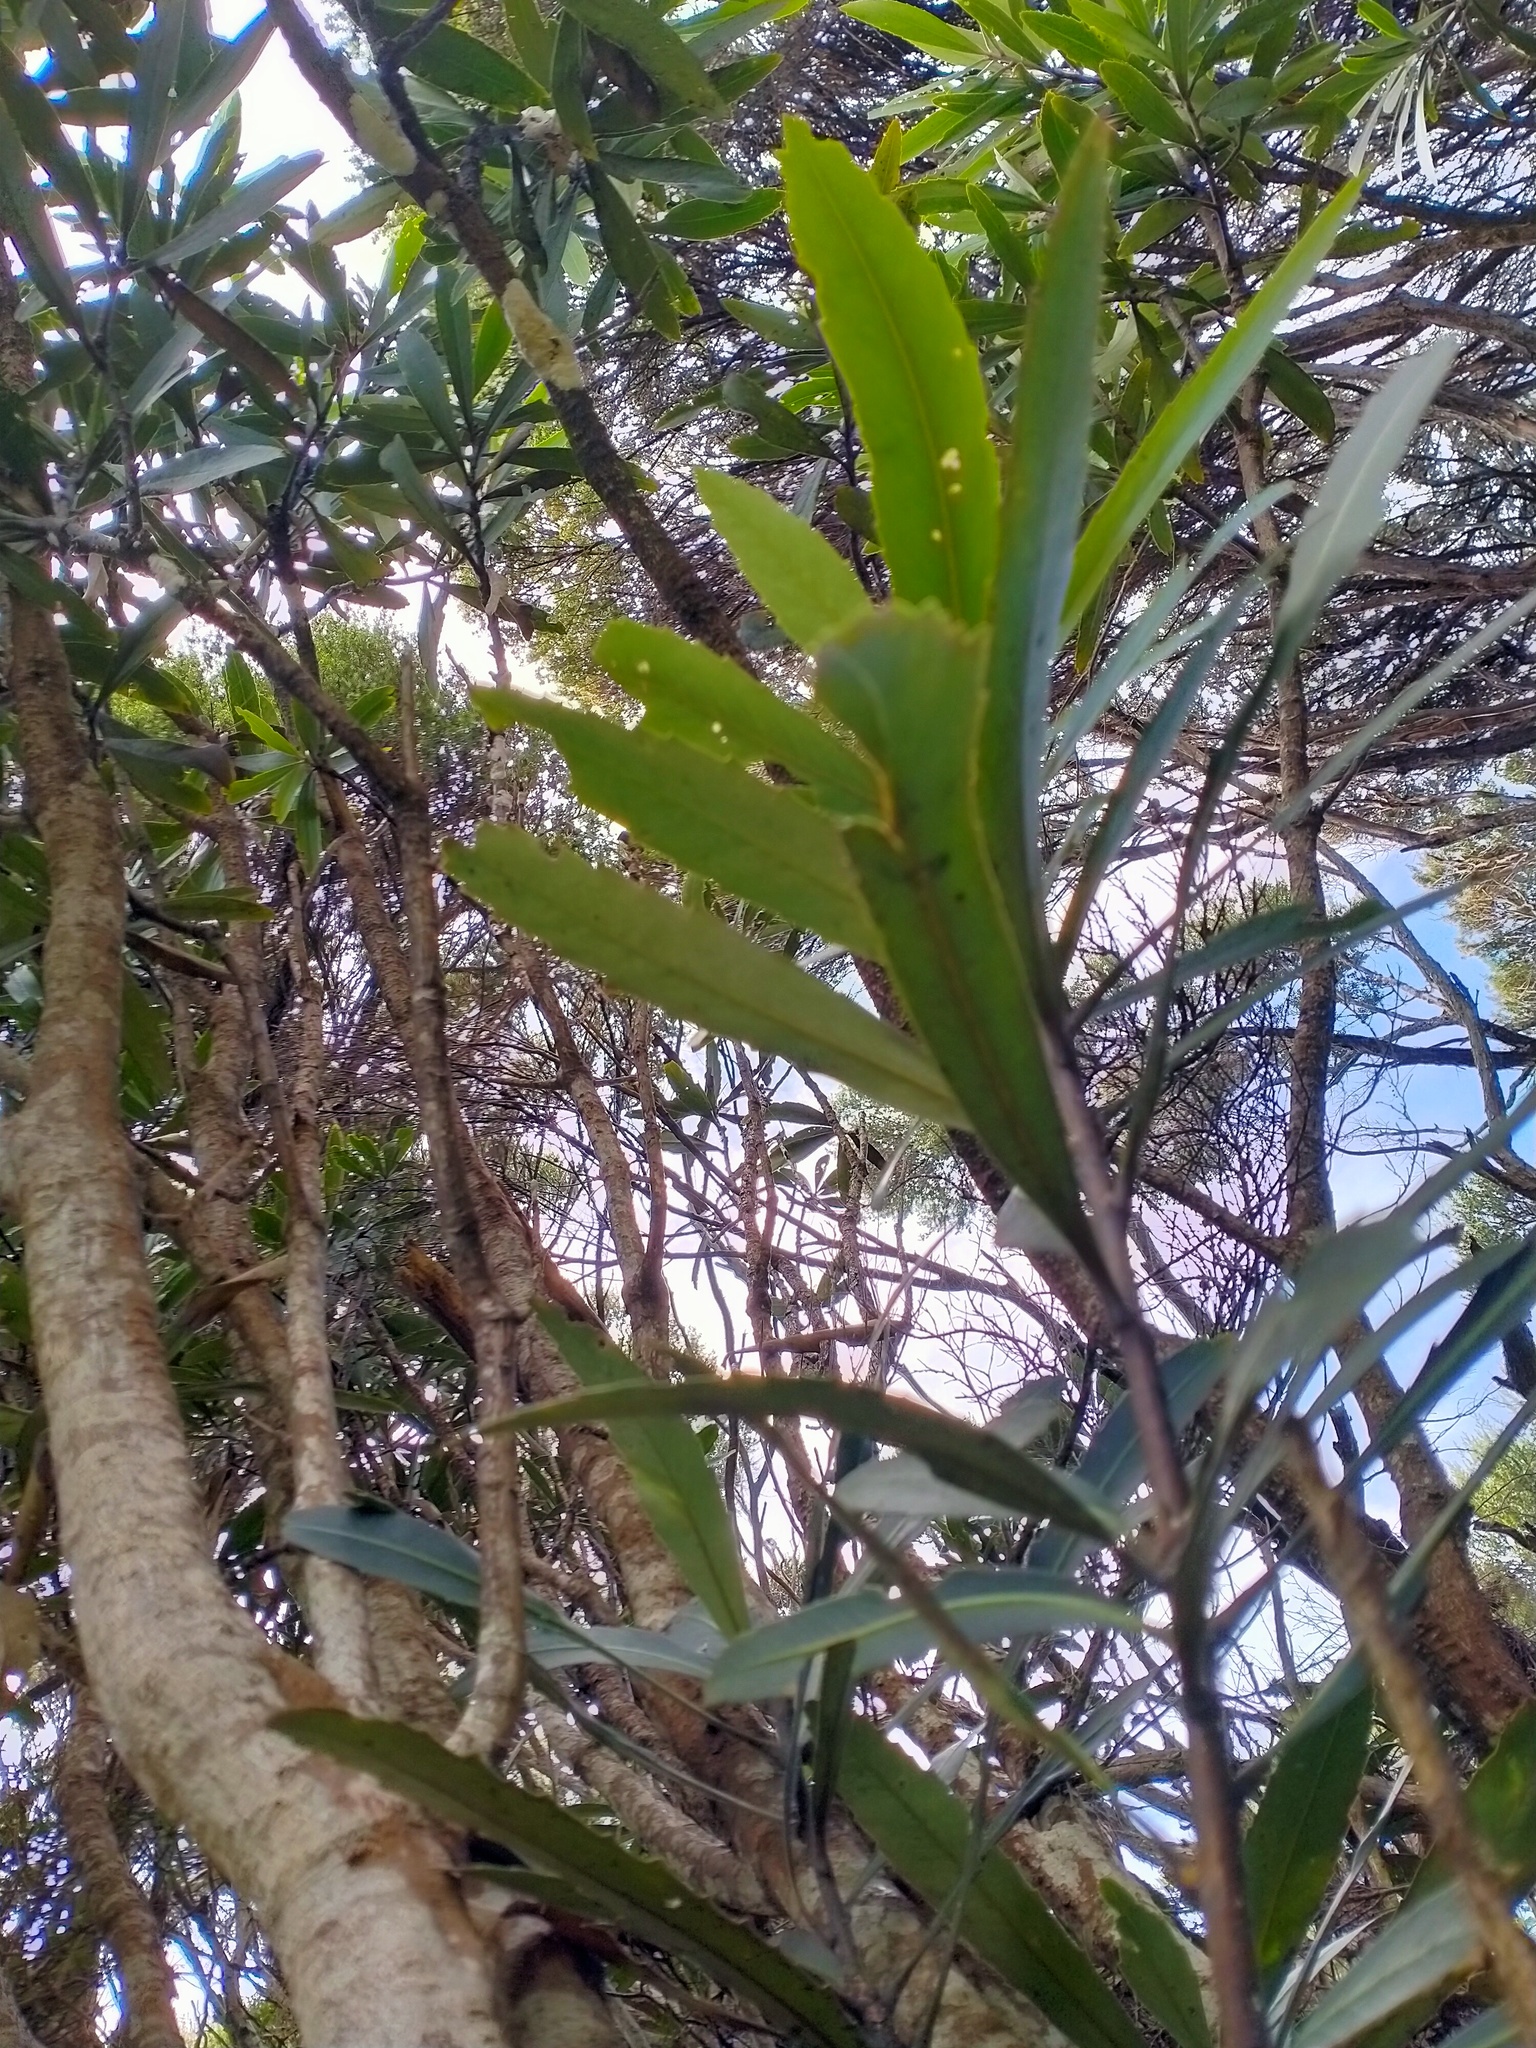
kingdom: Plantae
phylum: Tracheophyta
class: Magnoliopsida
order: Apiales
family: Araliaceae
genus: Pseudopanax
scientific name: Pseudopanax crassifolius
